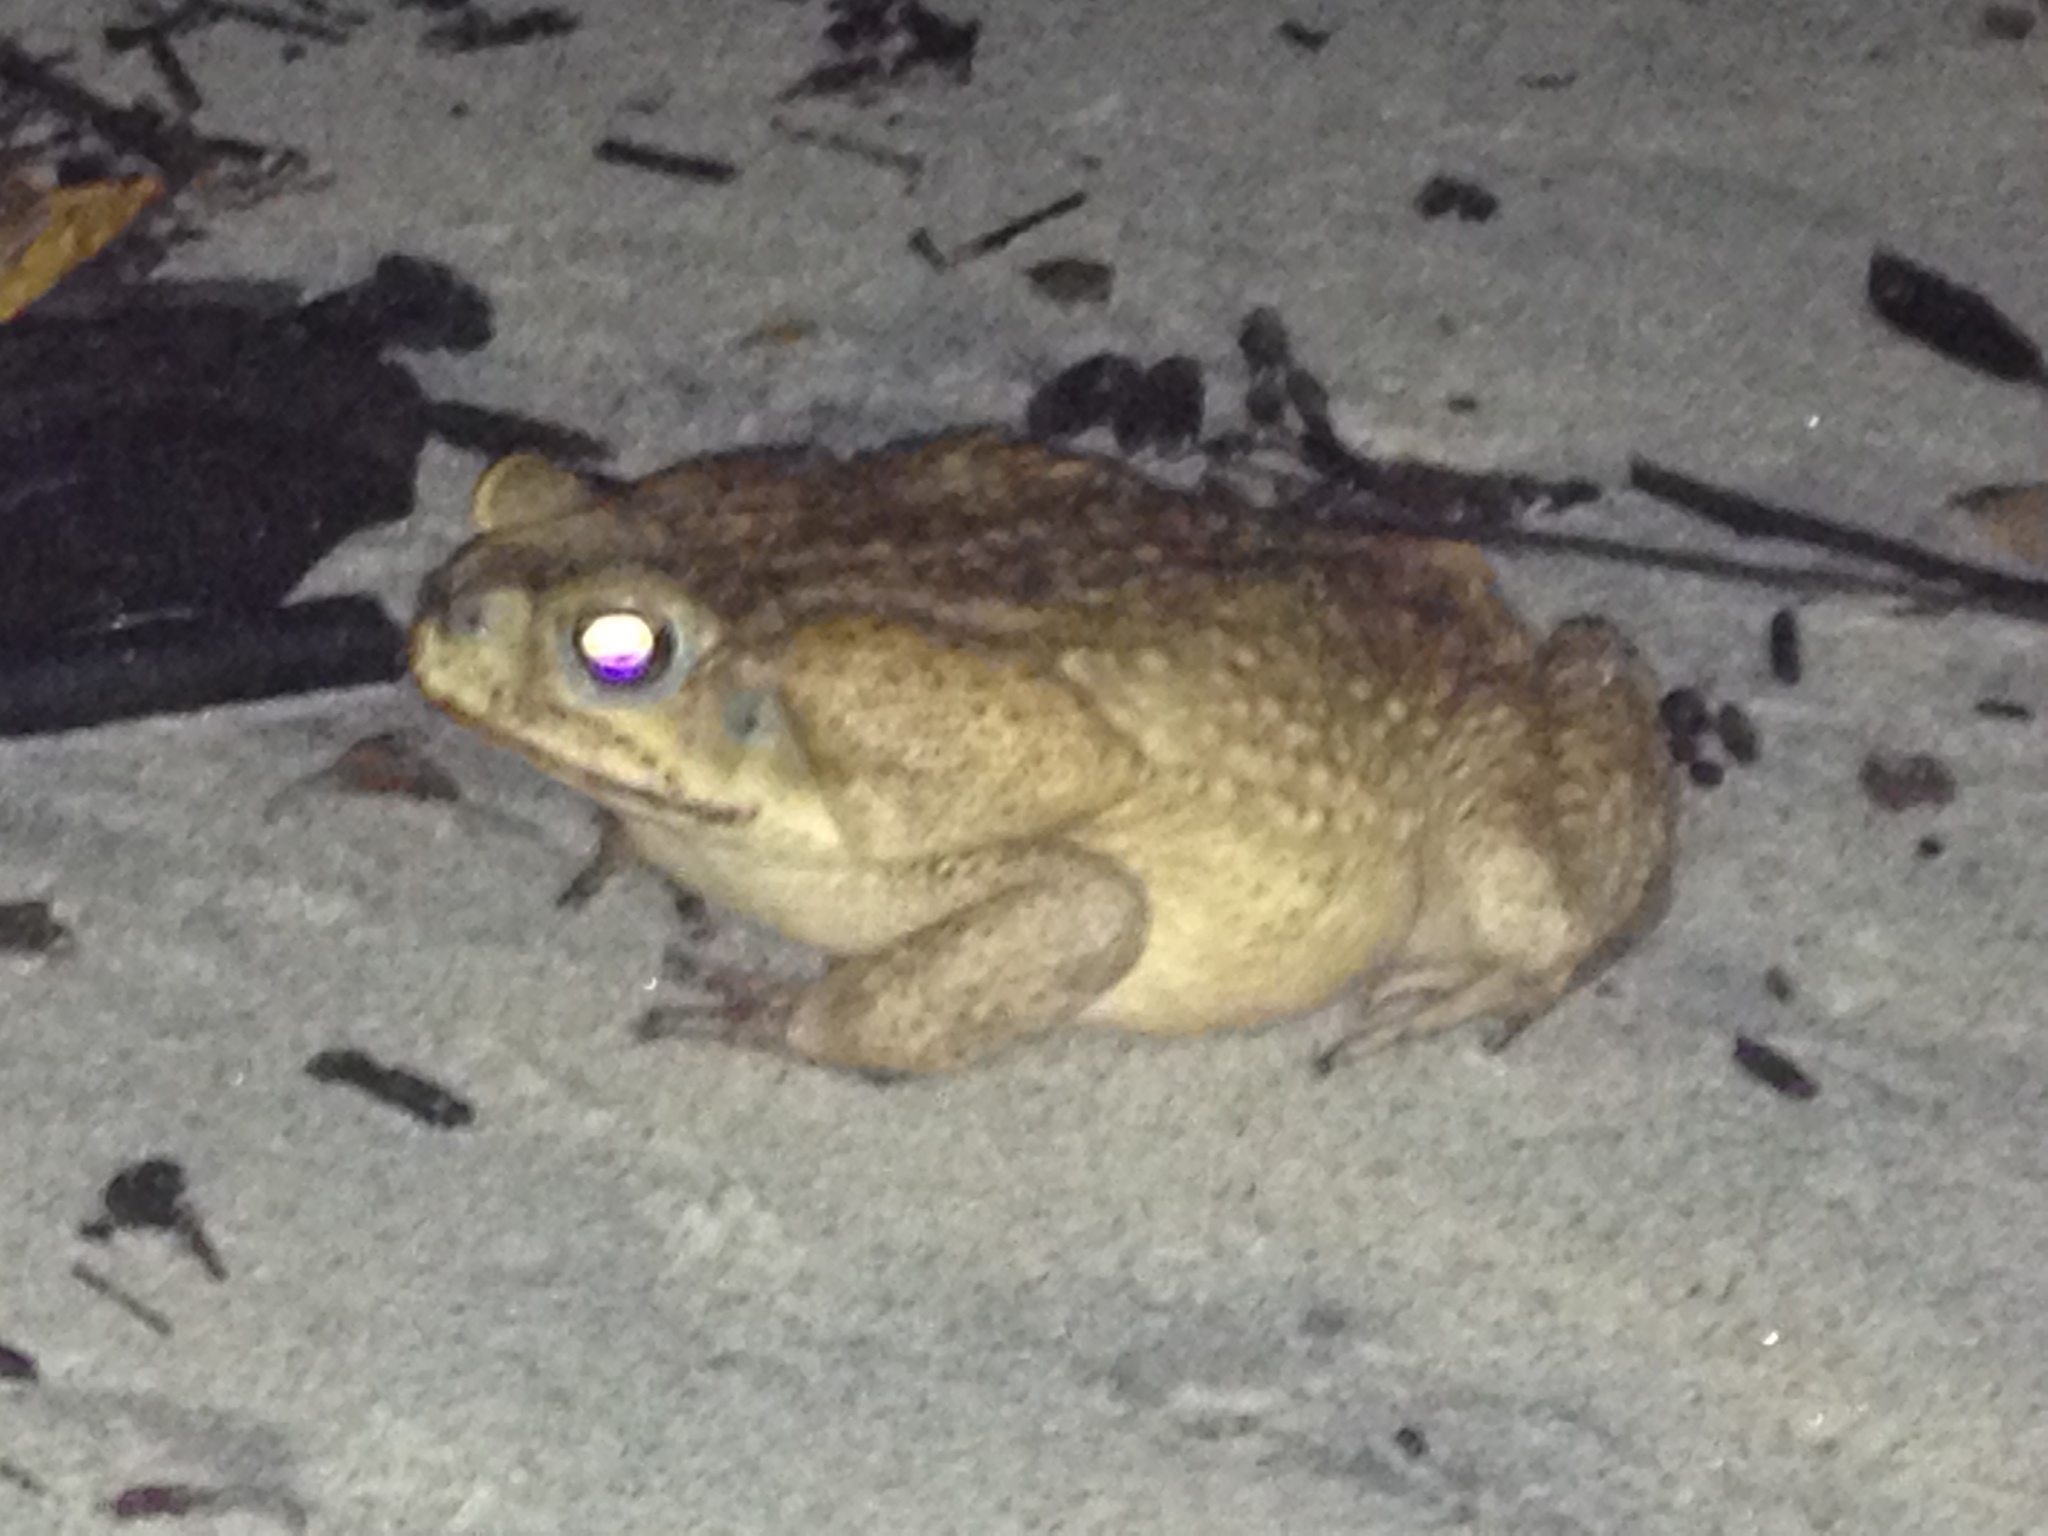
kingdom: Animalia
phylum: Chordata
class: Amphibia
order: Anura
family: Bufonidae
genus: Rhinella
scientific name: Rhinella horribilis
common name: Mesoamerican cane toad
